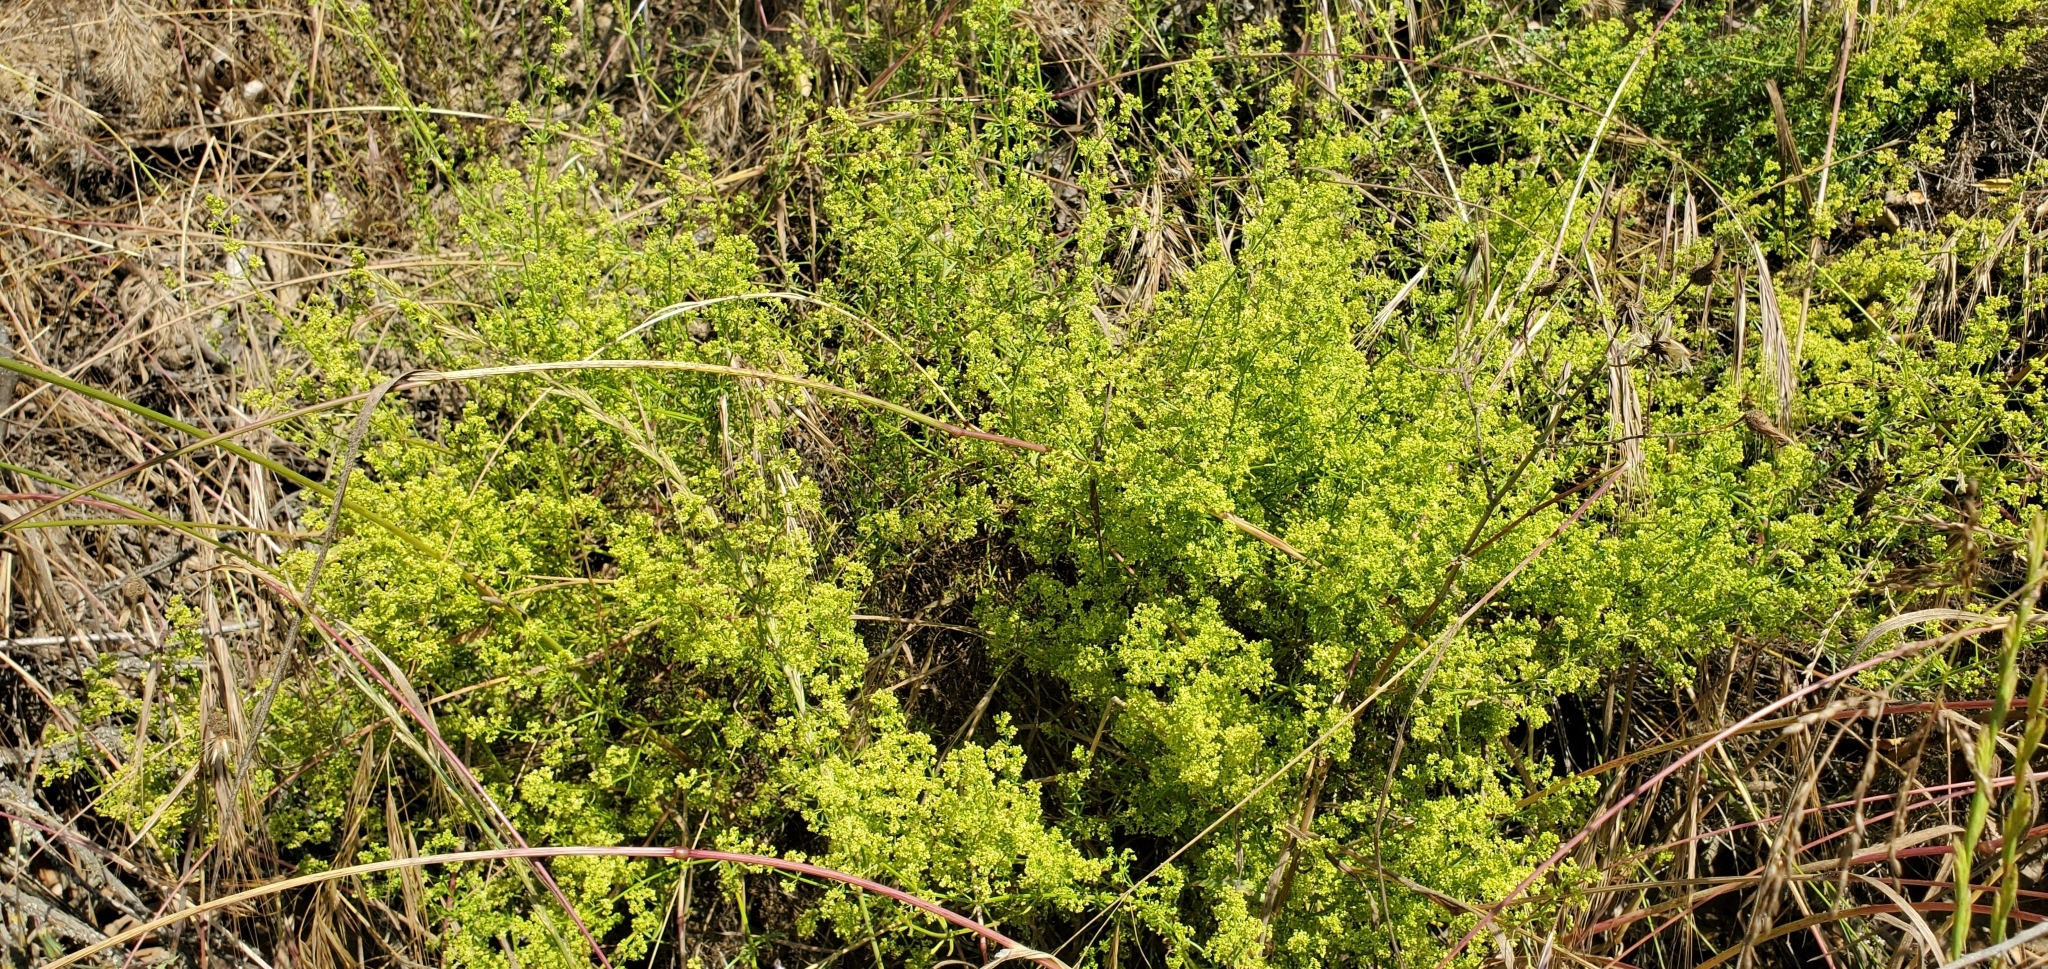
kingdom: Plantae
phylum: Tracheophyta
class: Magnoliopsida
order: Gentianales
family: Rubiaceae
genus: Galium
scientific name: Galium angustifolium
